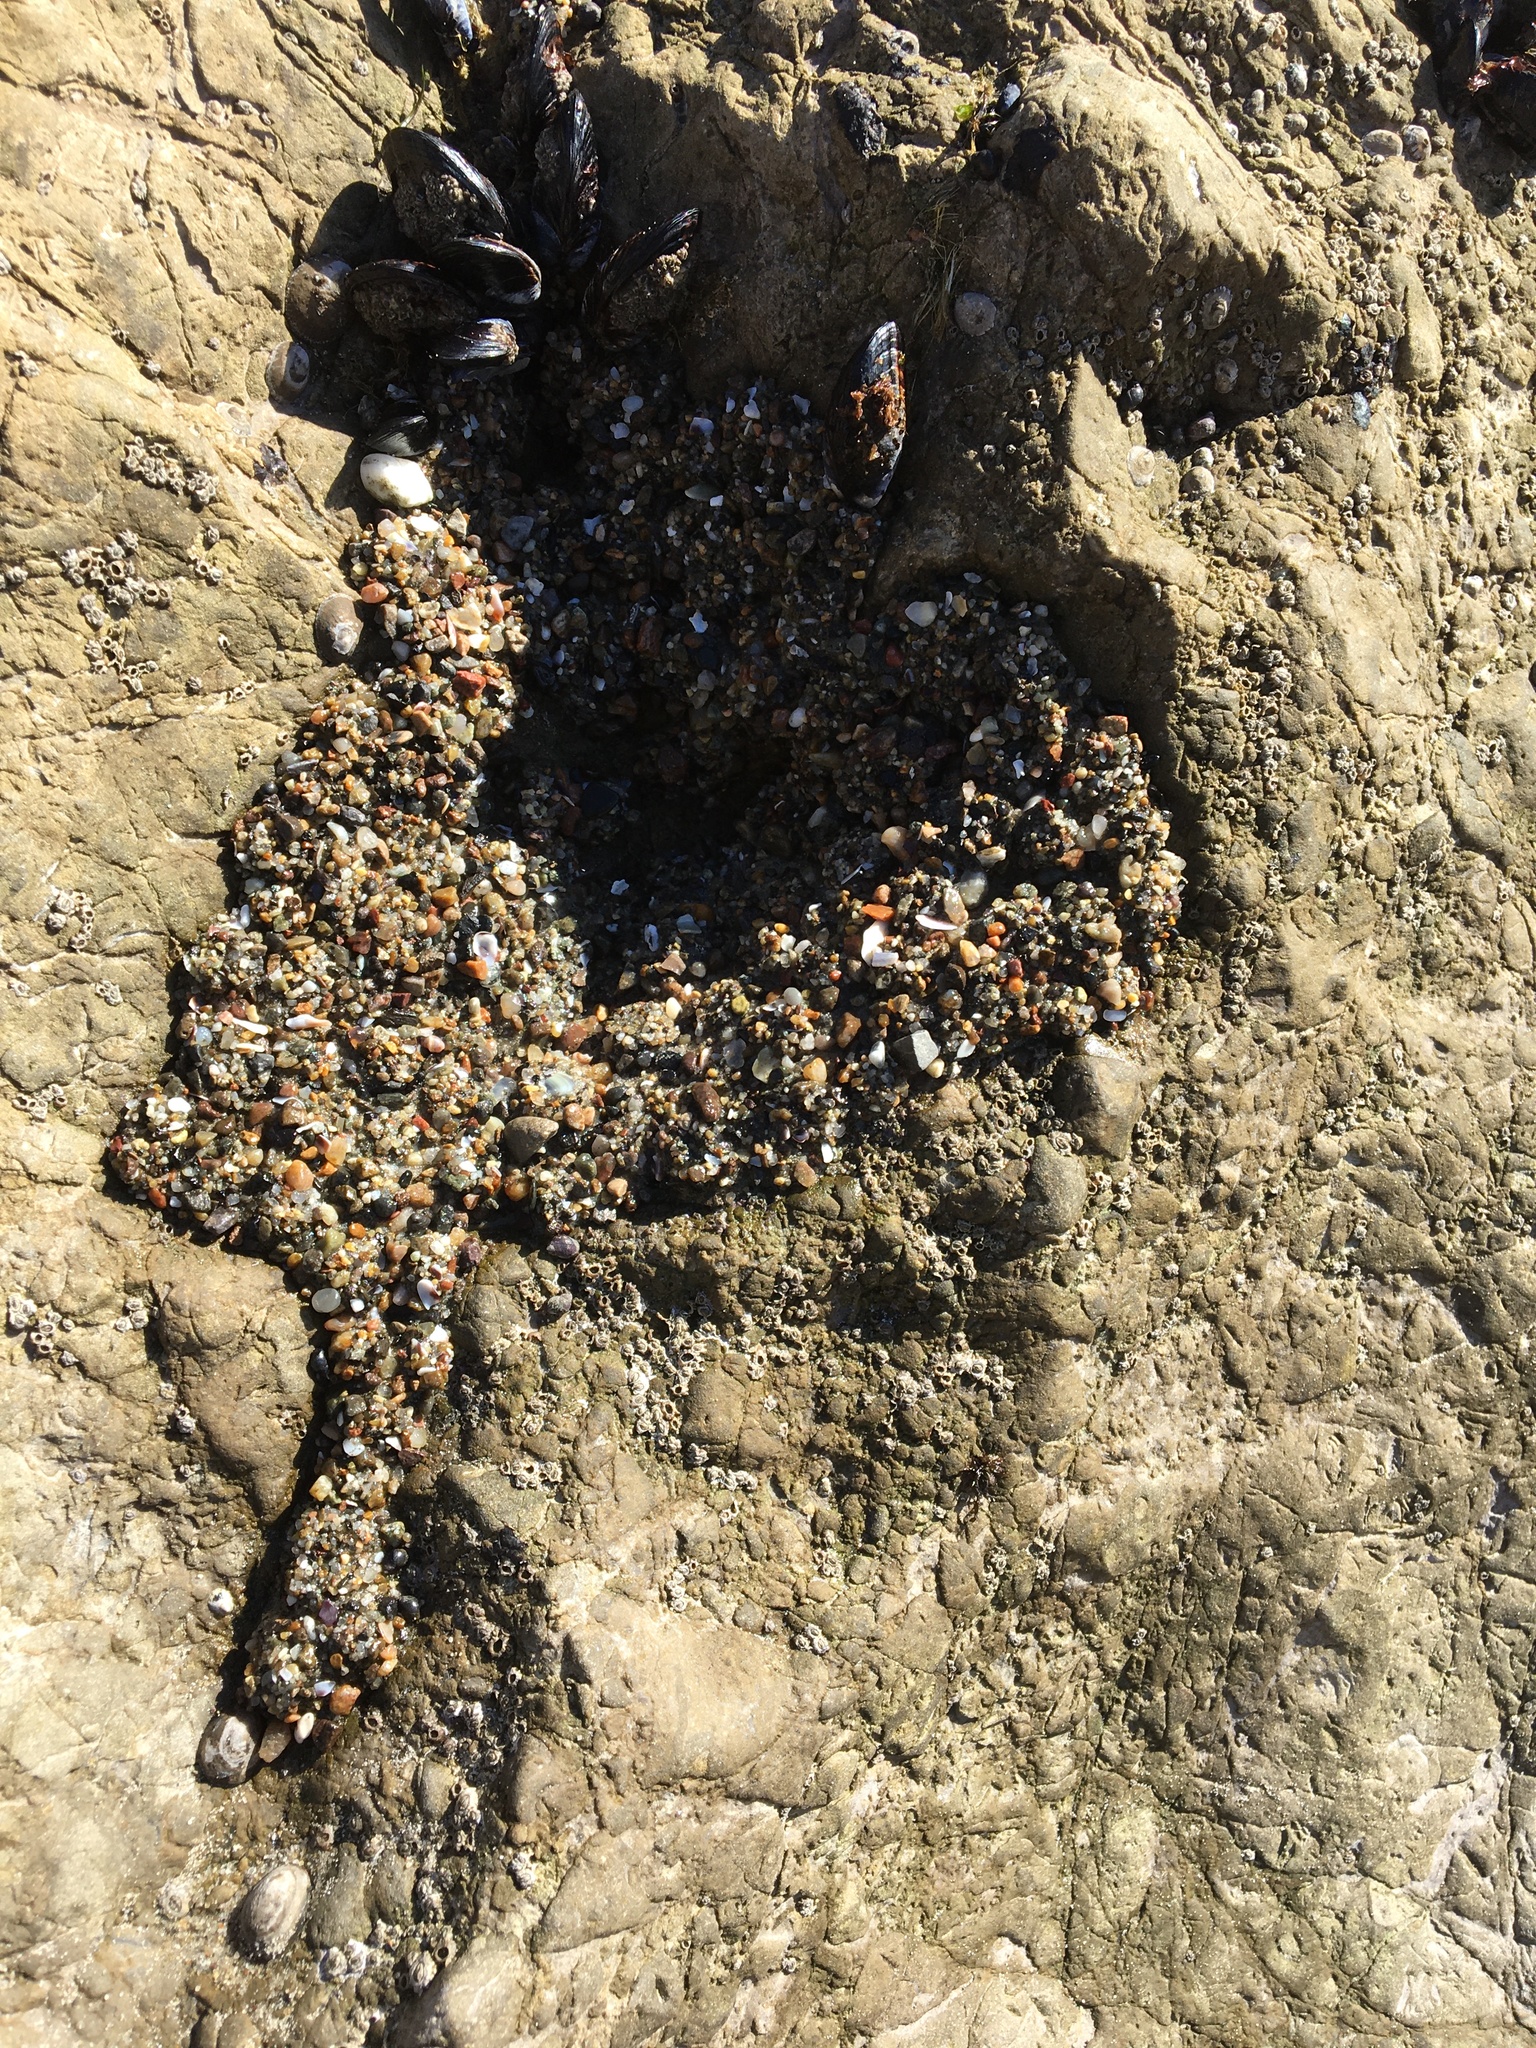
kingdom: Animalia
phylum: Cnidaria
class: Anthozoa
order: Actiniaria
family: Actiniidae
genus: Anthopleura
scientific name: Anthopleura elegantissima
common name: Clonal anemone
